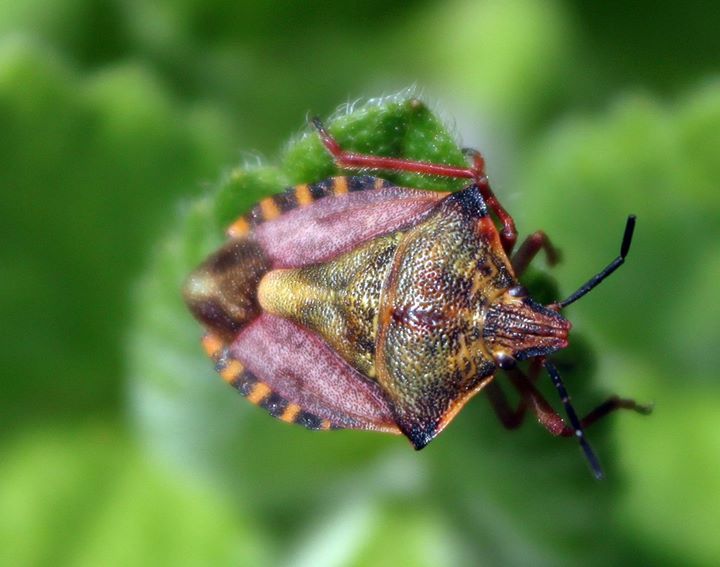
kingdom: Animalia
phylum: Arthropoda
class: Insecta
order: Hemiptera
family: Pentatomidae
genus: Carpocoris
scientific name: Carpocoris mediterraneus
